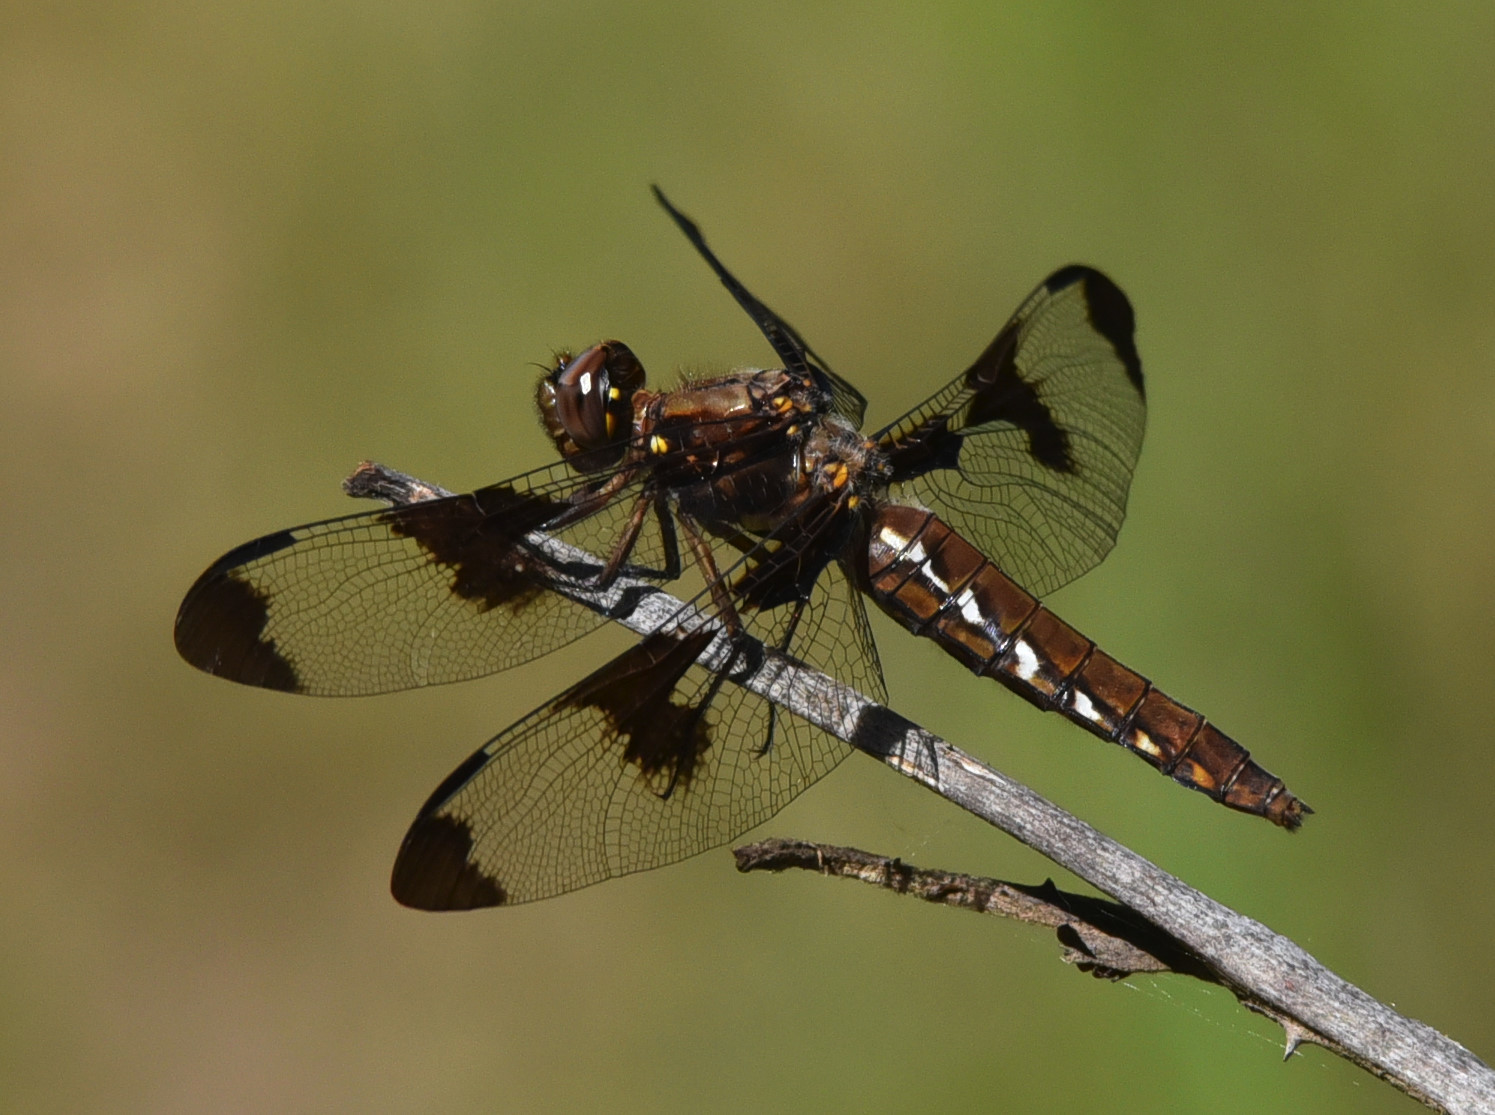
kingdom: Animalia
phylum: Arthropoda
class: Insecta
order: Odonata
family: Libellulidae
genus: Plathemis
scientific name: Plathemis lydia
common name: Common whitetail
